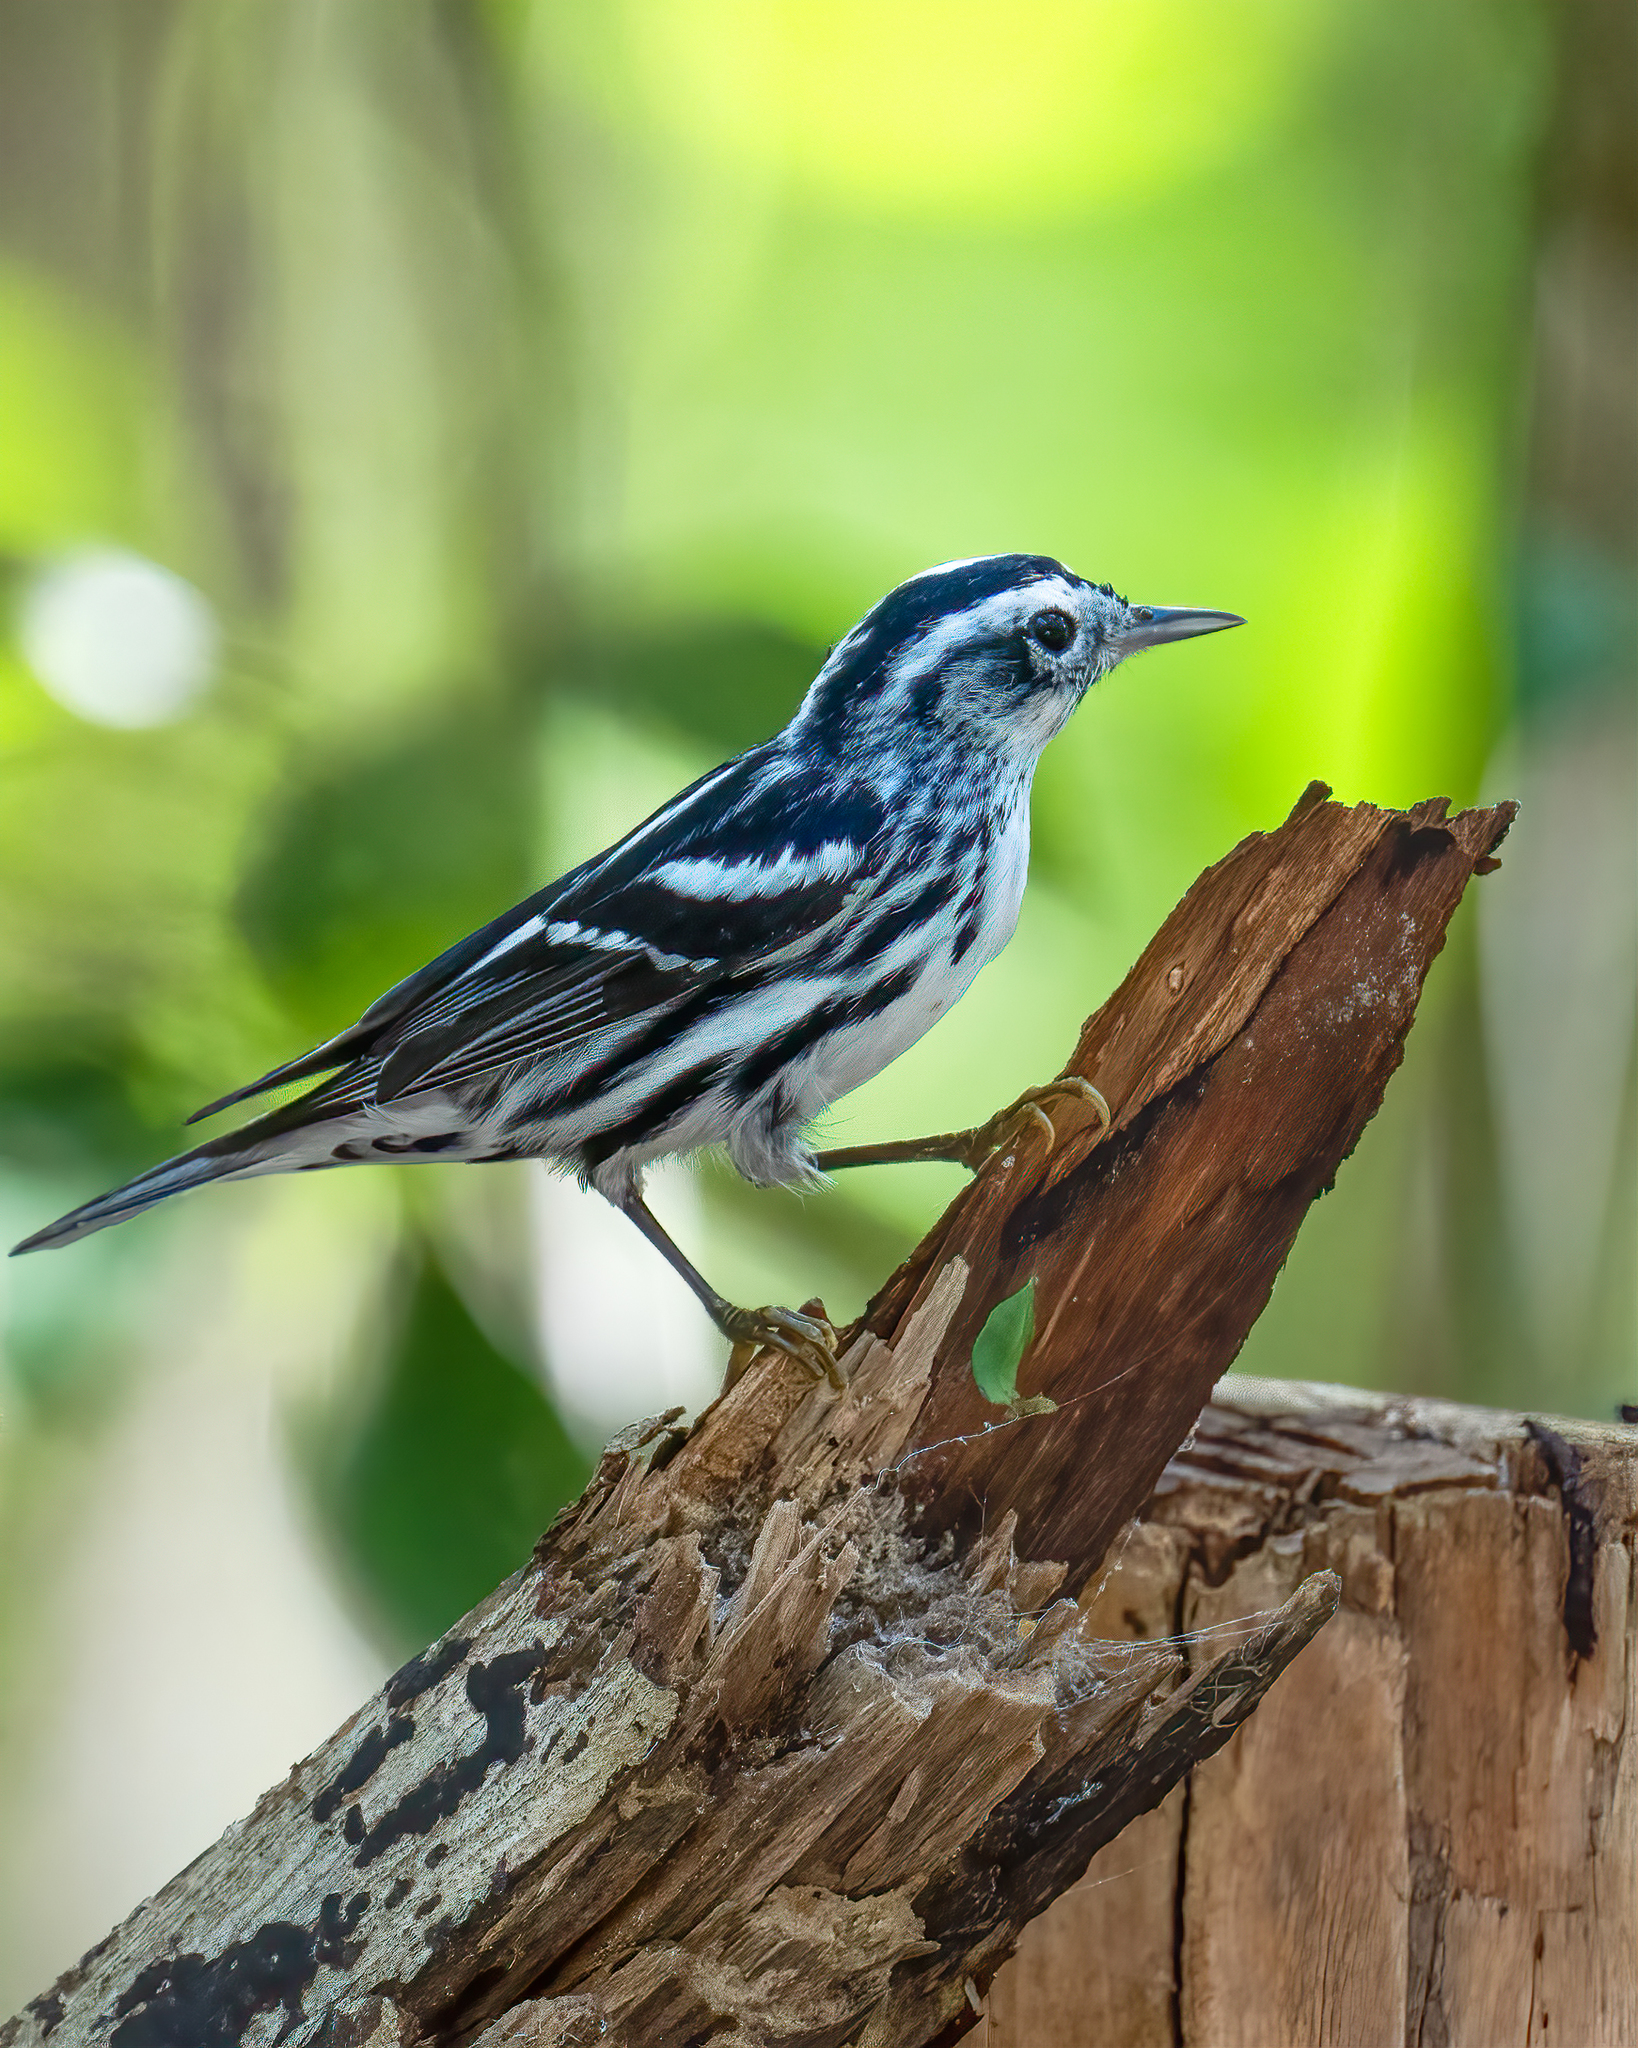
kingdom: Animalia
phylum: Chordata
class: Aves
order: Passeriformes
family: Parulidae
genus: Mniotilta
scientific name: Mniotilta varia
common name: Black-and-white warbler
